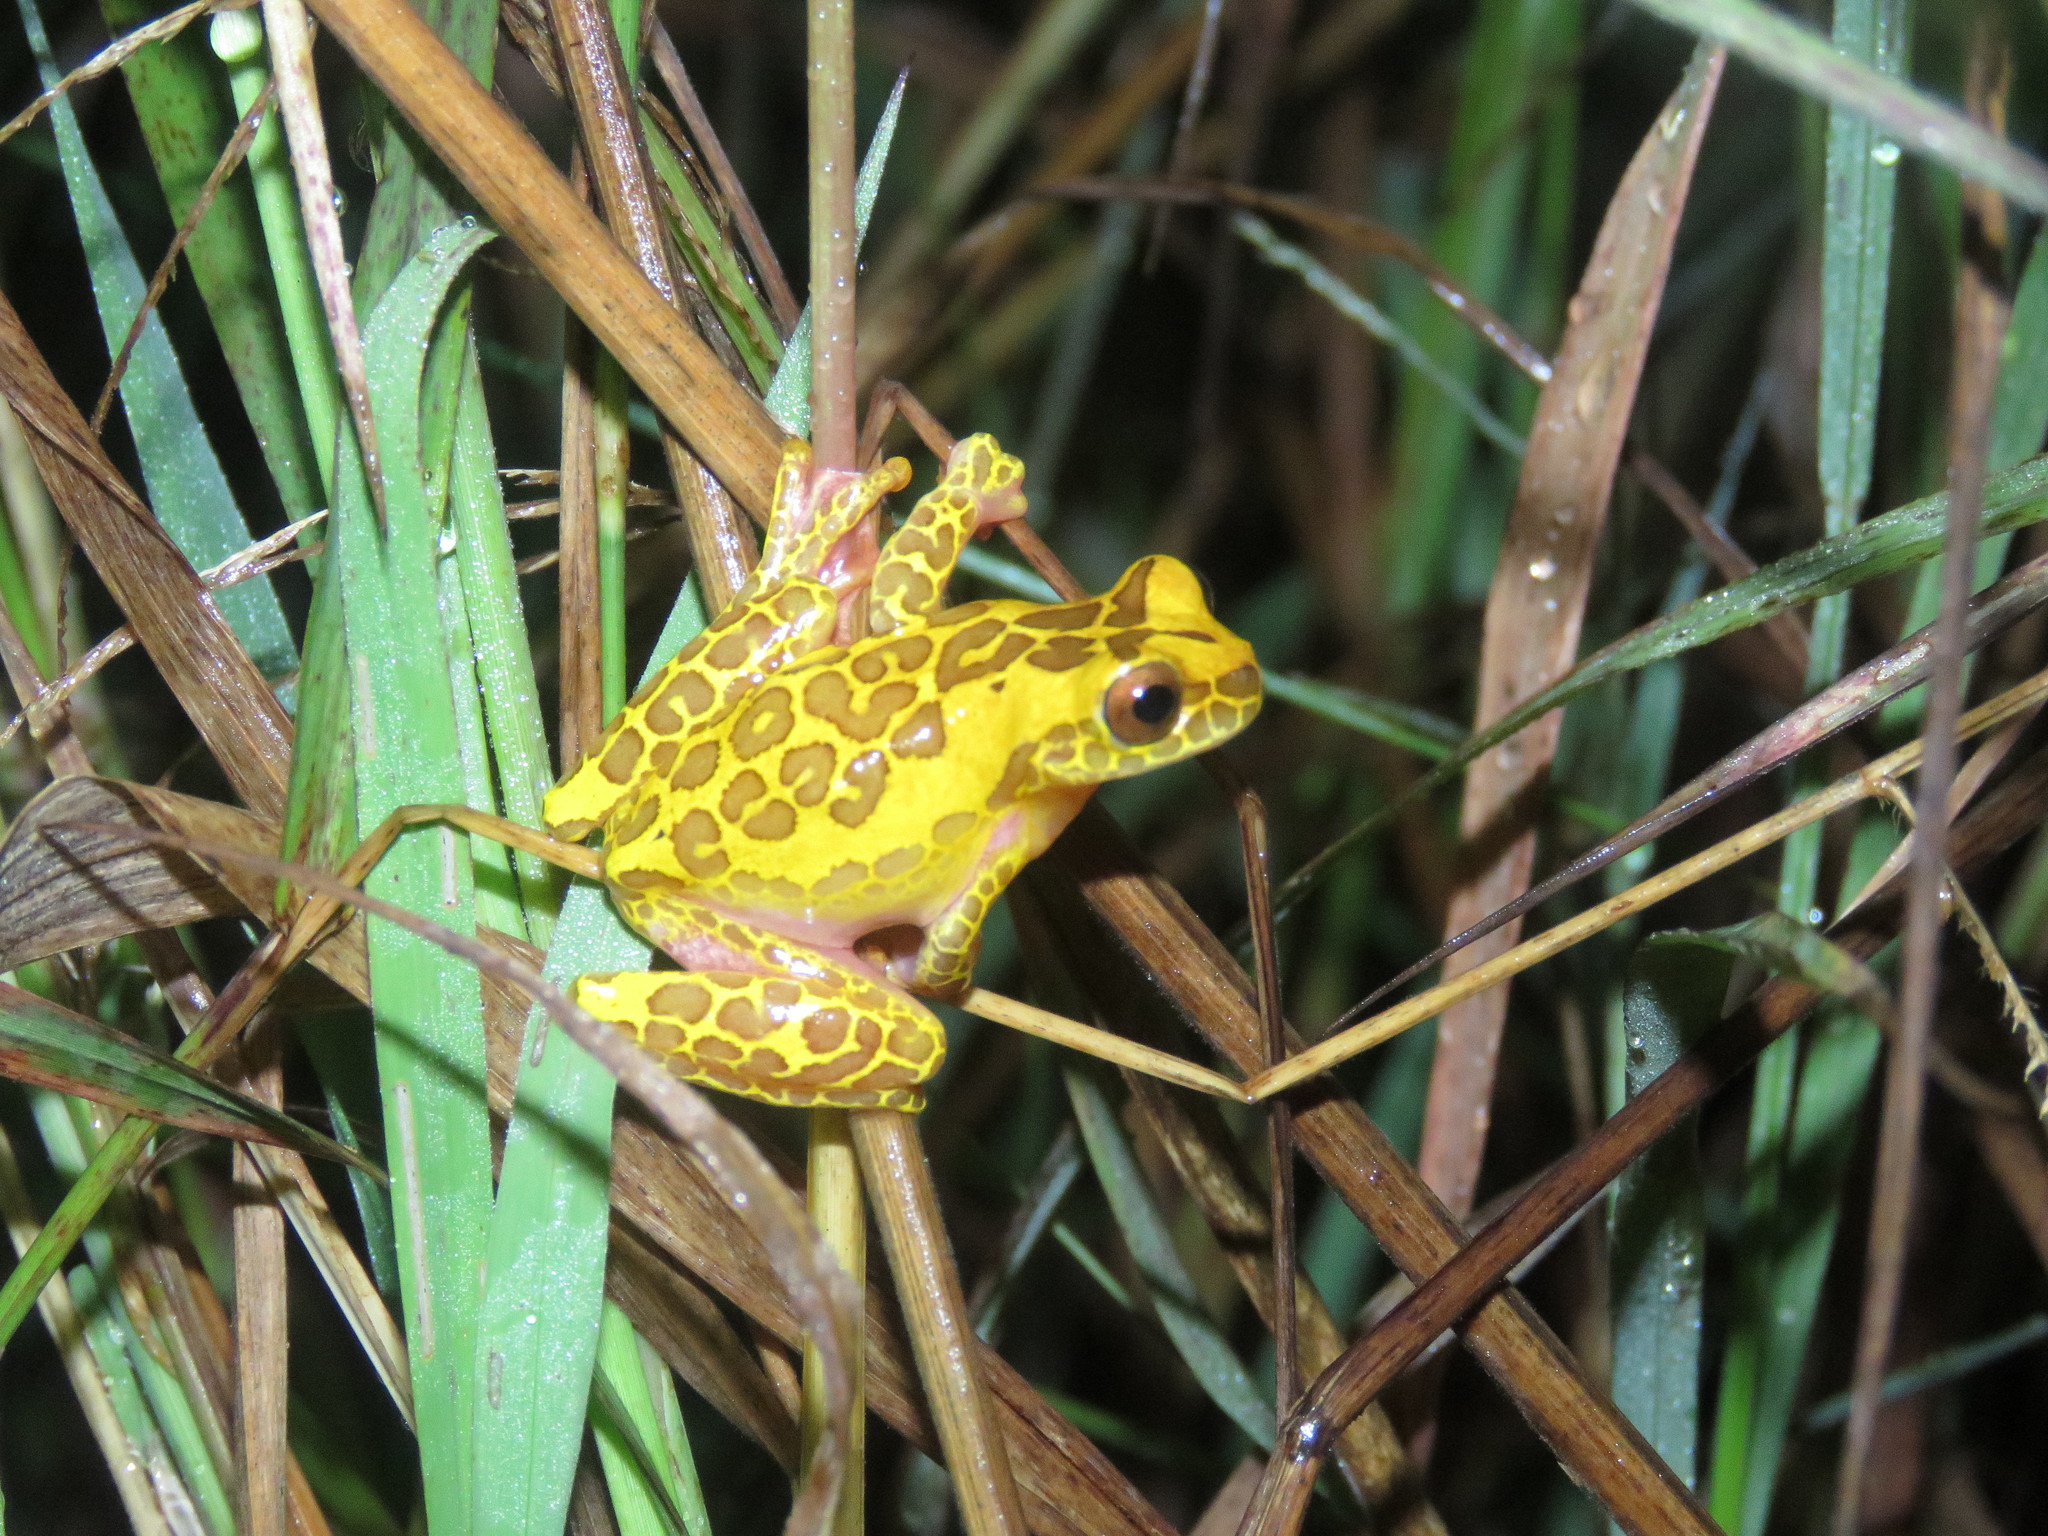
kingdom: Animalia
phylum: Chordata
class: Amphibia
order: Anura
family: Hylidae
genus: Dendropsophus
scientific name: Dendropsophus arndti
